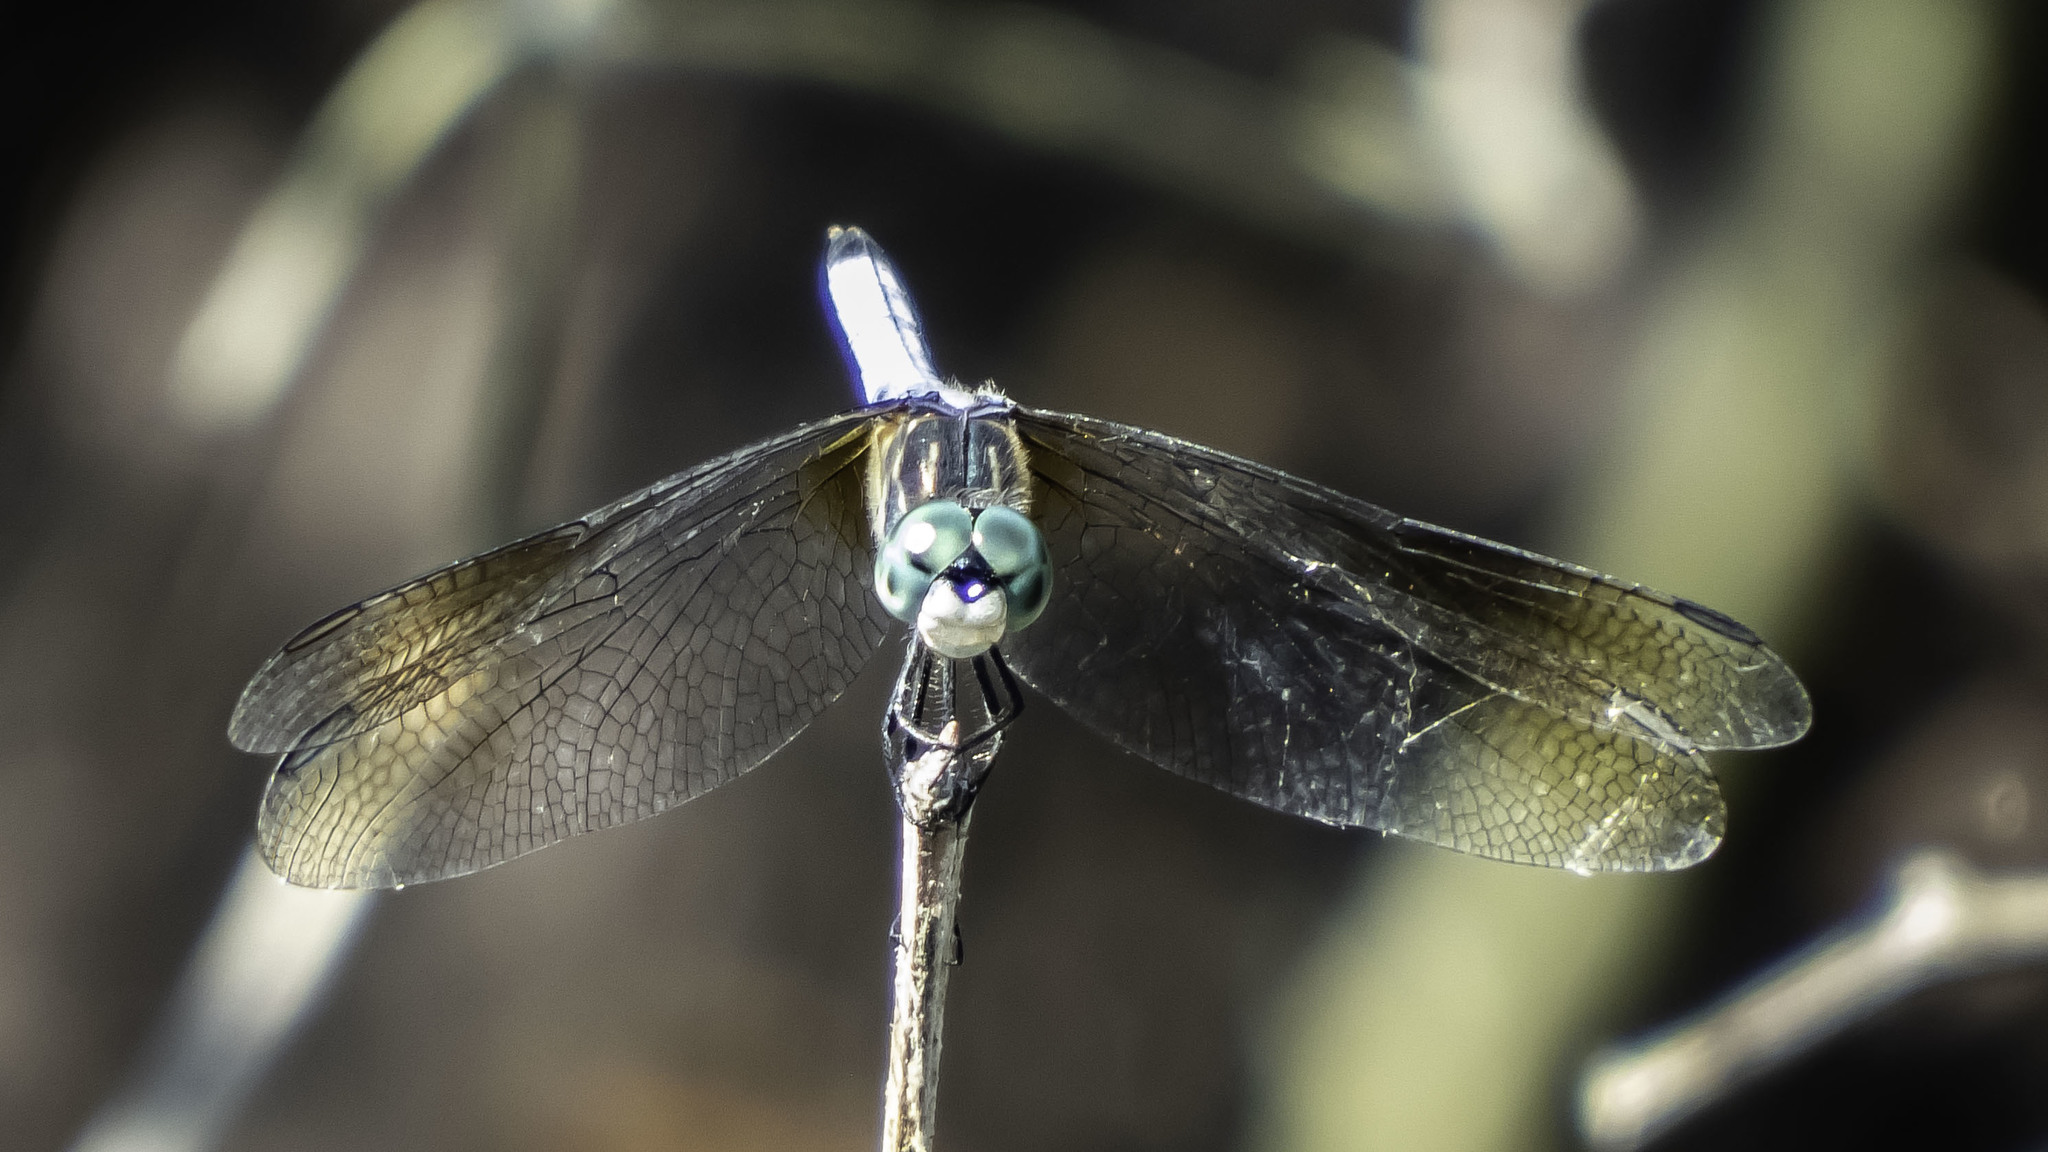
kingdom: Animalia
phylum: Arthropoda
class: Insecta
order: Odonata
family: Libellulidae
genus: Pachydiplax
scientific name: Pachydiplax longipennis
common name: Blue dasher
